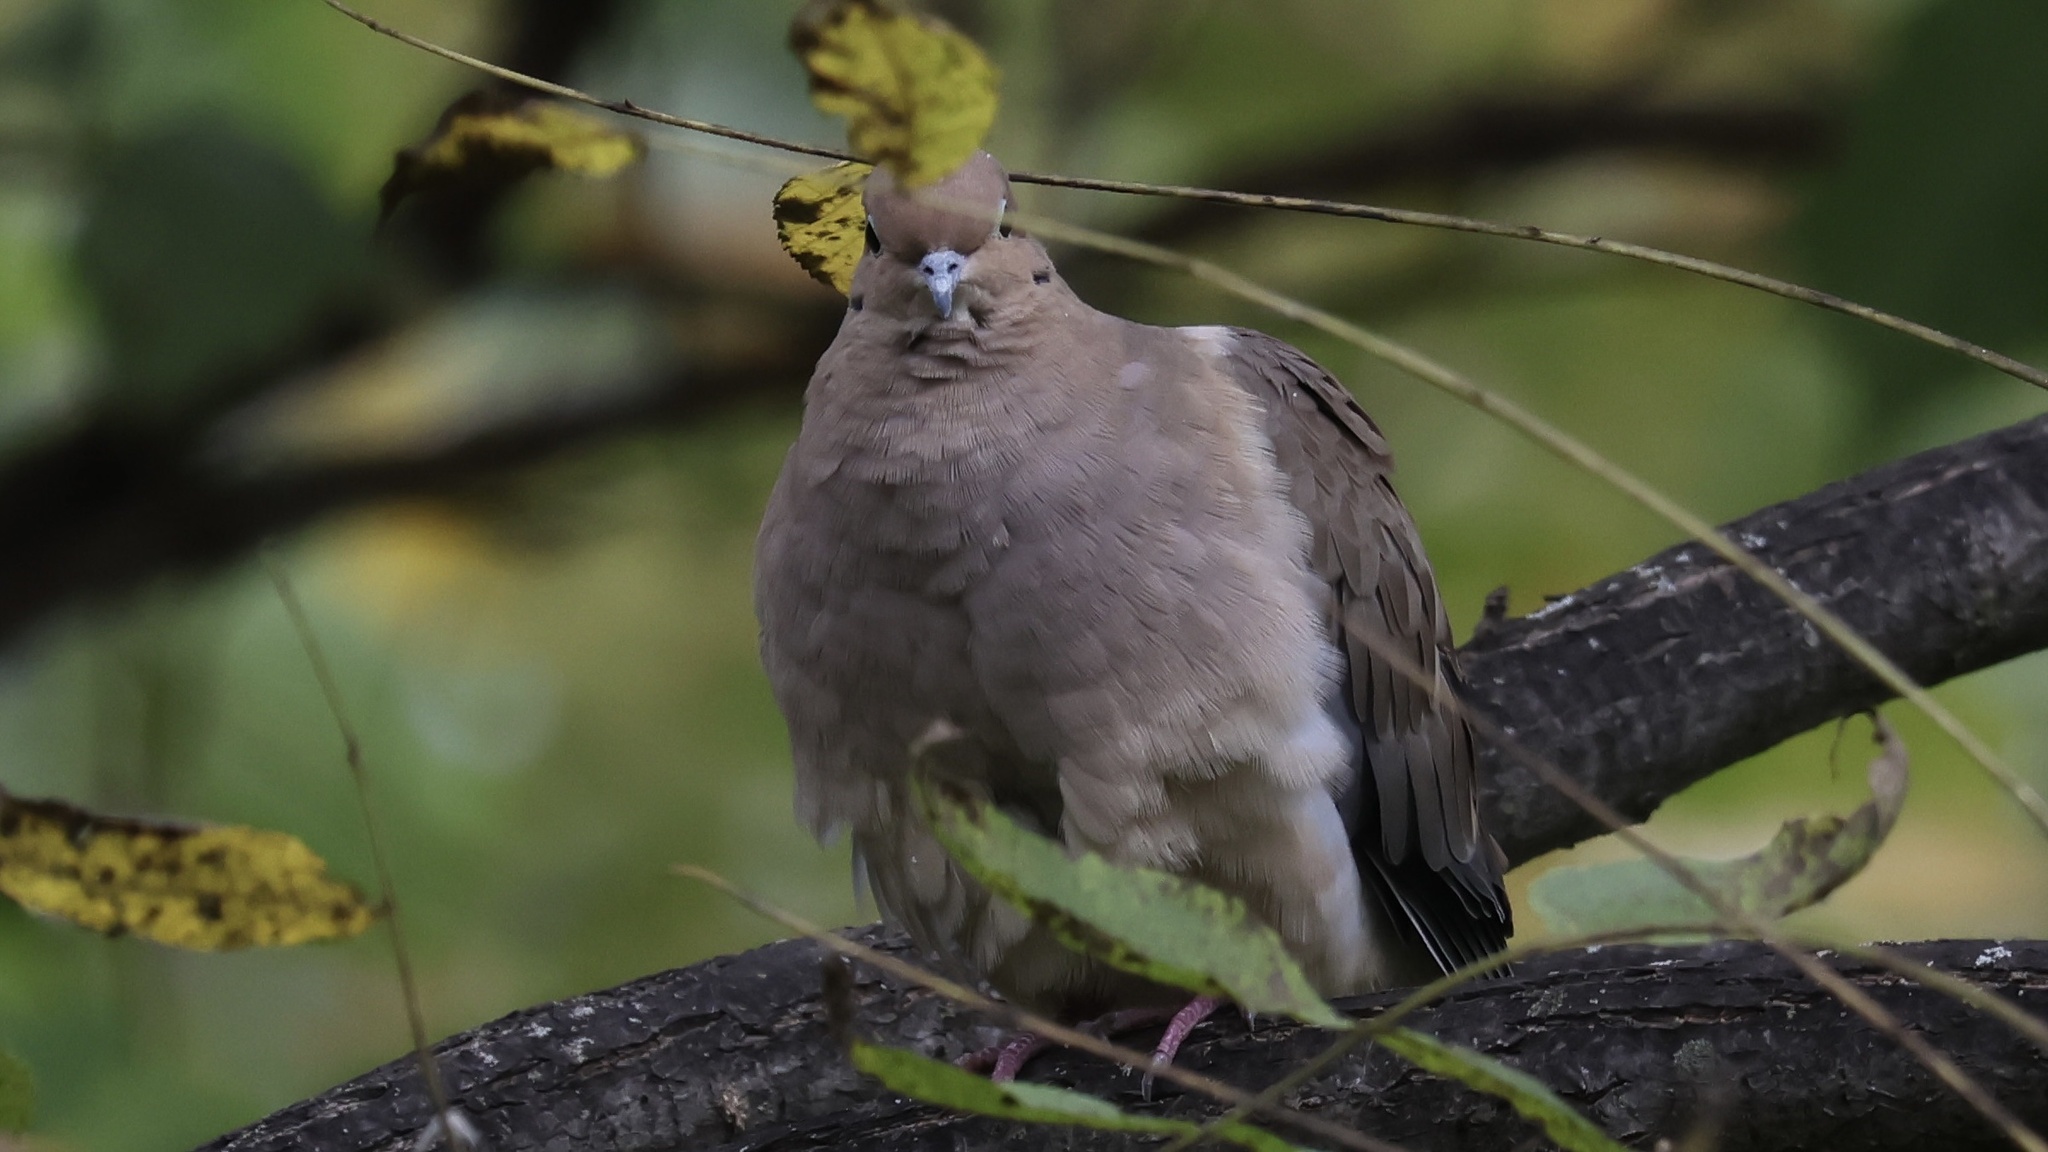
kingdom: Animalia
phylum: Chordata
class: Aves
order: Columbiformes
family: Columbidae
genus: Zenaida
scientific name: Zenaida macroura
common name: Mourning dove
